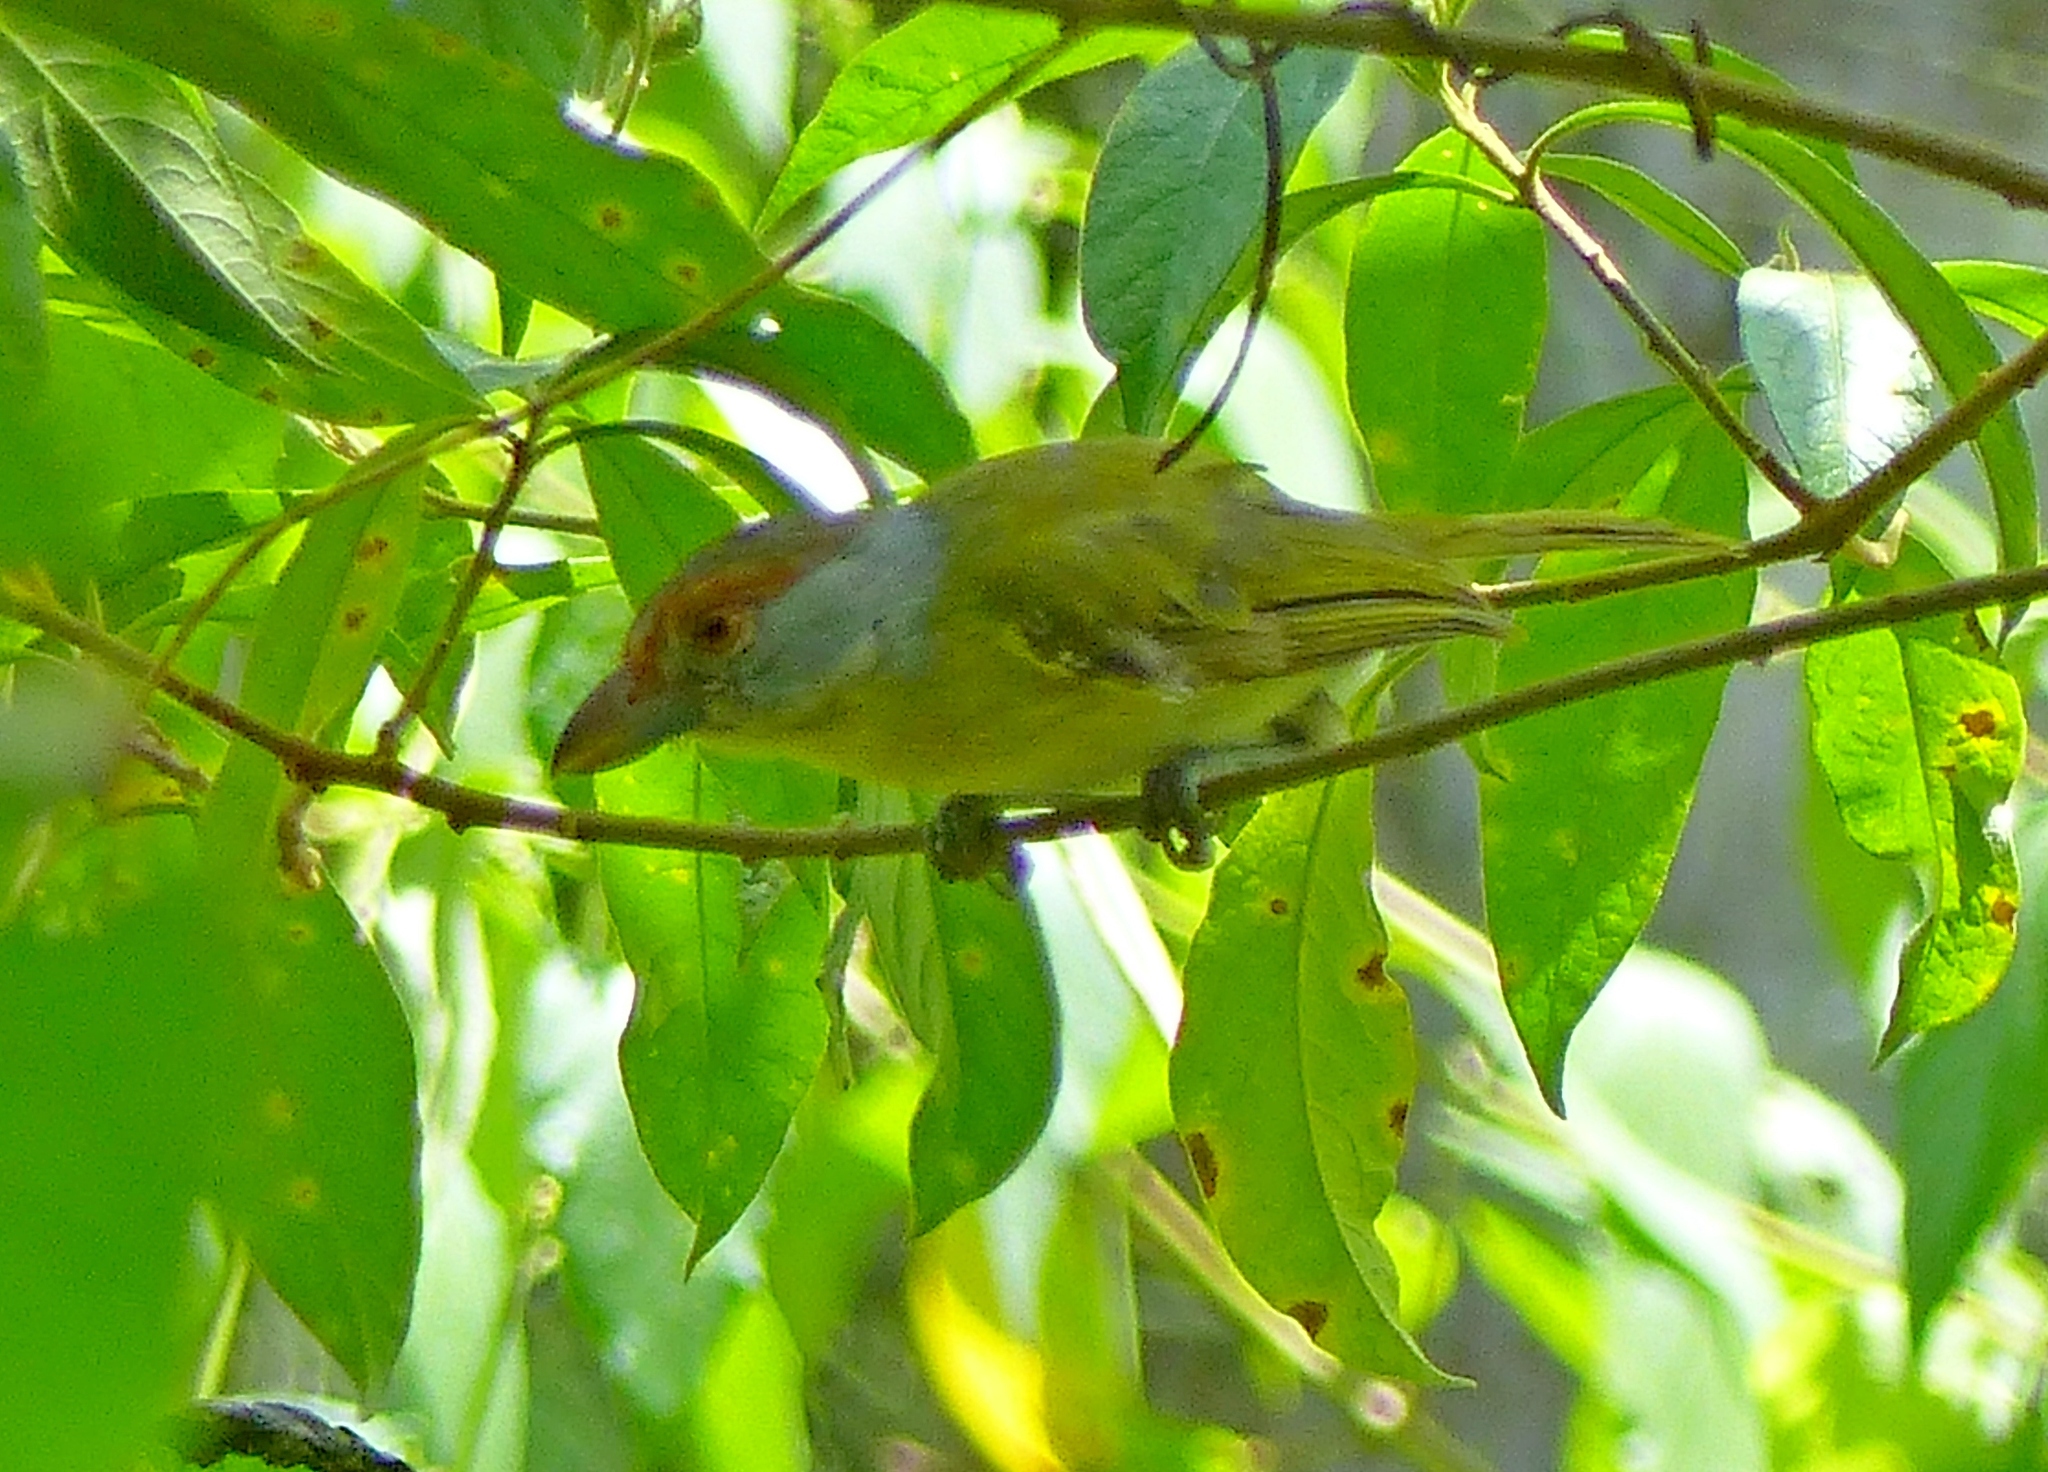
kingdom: Animalia
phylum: Chordata
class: Aves
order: Passeriformes
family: Vireonidae
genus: Cyclarhis
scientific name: Cyclarhis gujanensis
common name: Rufous-browed peppershrike
